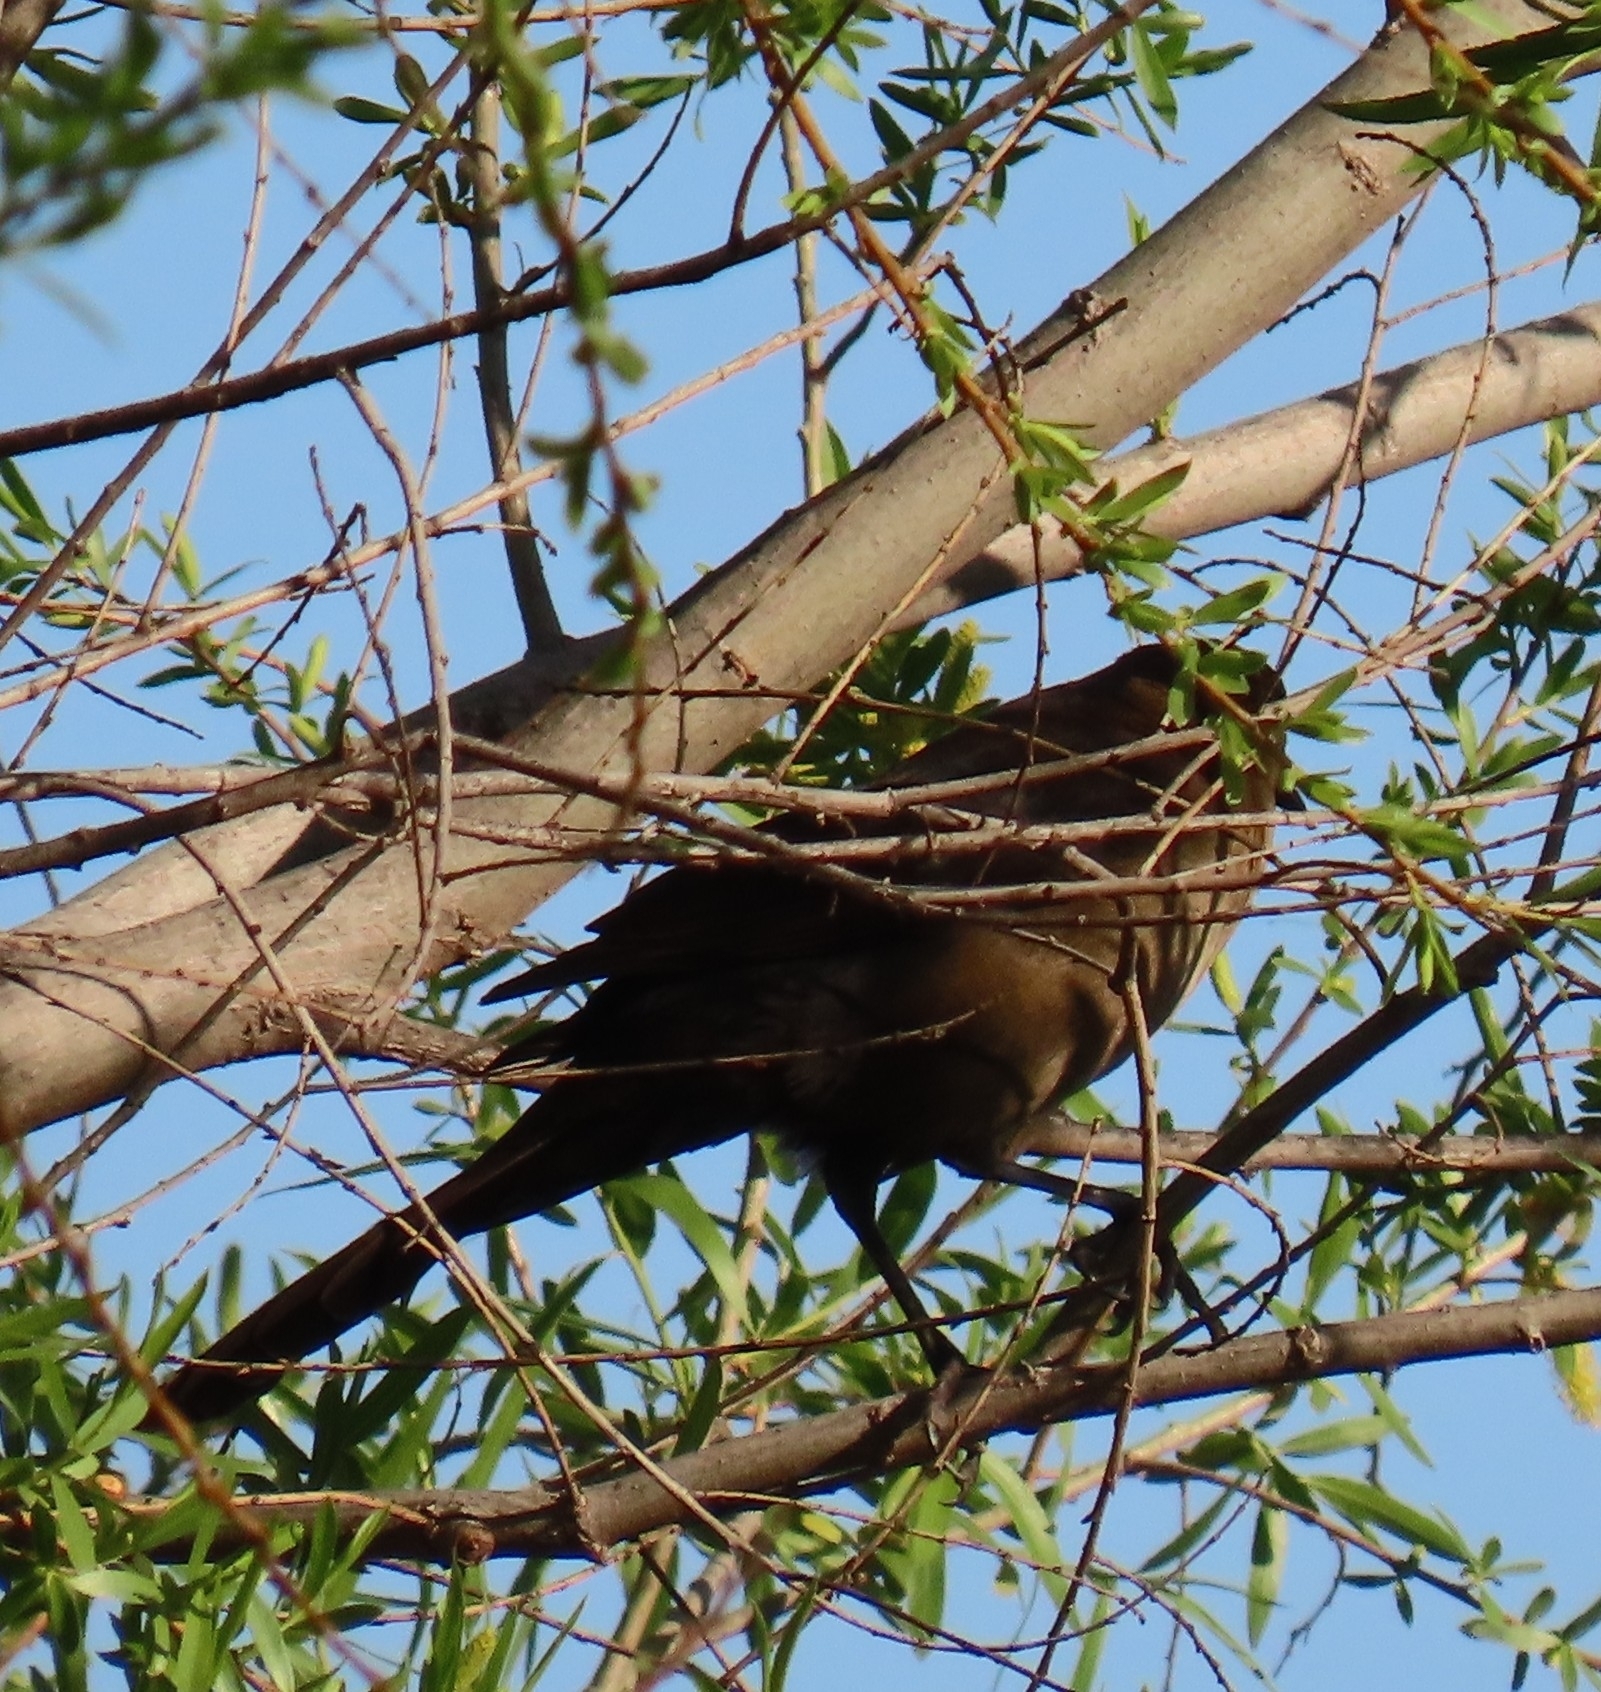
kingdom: Animalia
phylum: Chordata
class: Aves
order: Passeriformes
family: Icteridae
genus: Quiscalus
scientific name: Quiscalus mexicanus
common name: Great-tailed grackle
